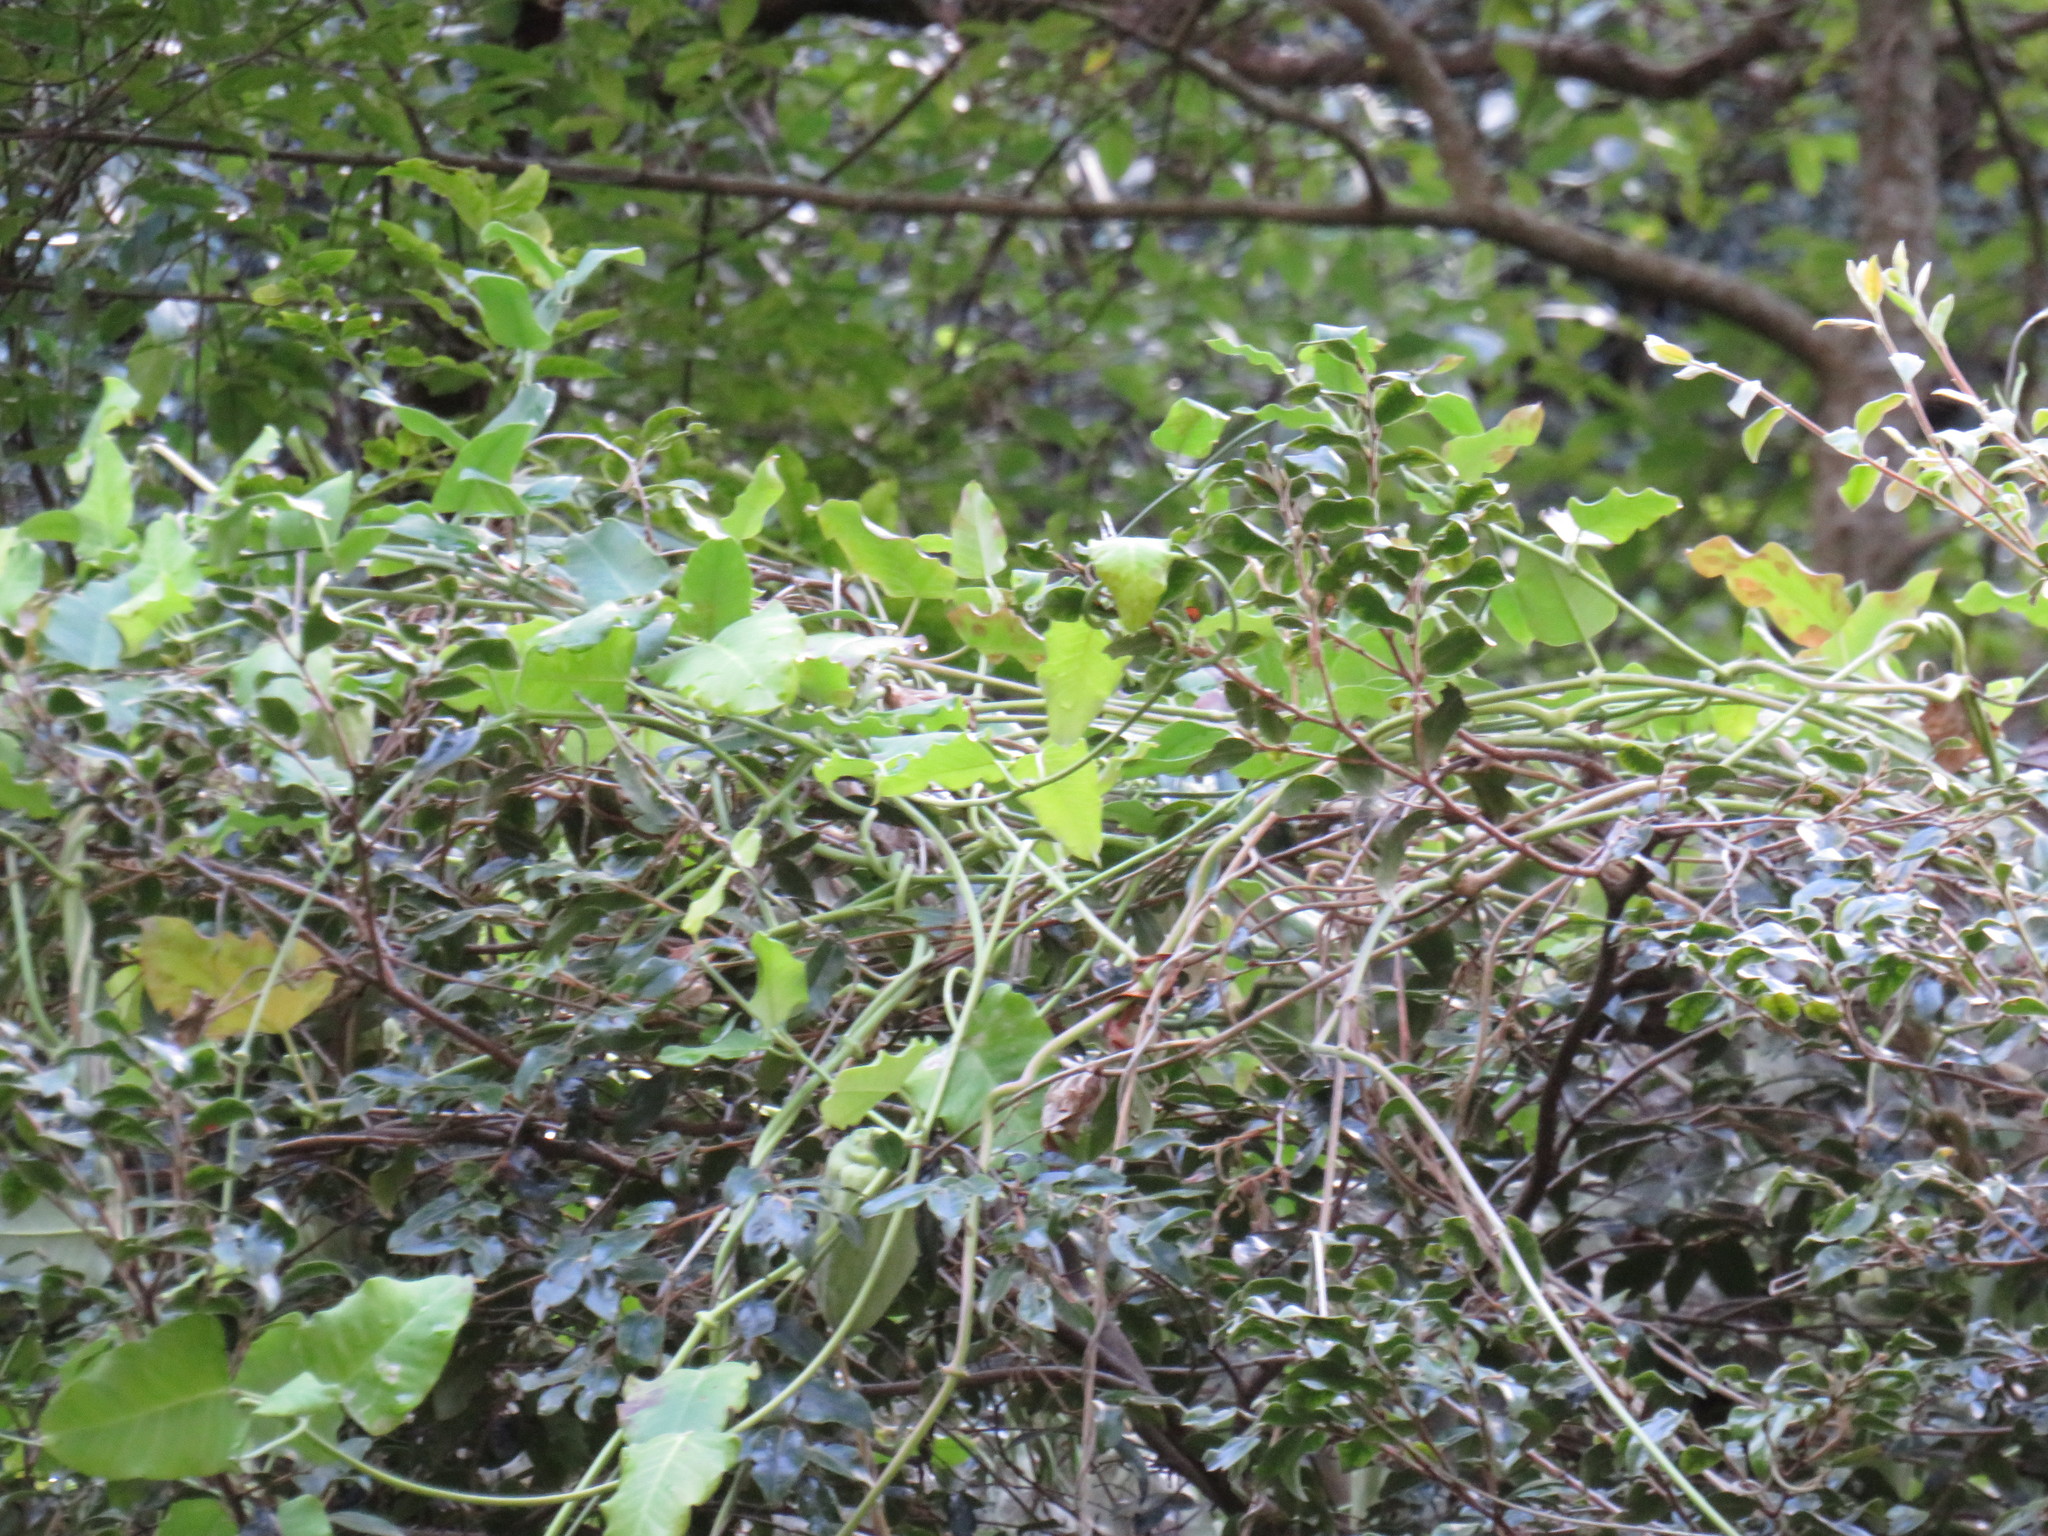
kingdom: Plantae
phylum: Tracheophyta
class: Magnoliopsida
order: Gentianales
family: Apocynaceae
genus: Araujia
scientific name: Araujia sericifera
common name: White bladderflower
